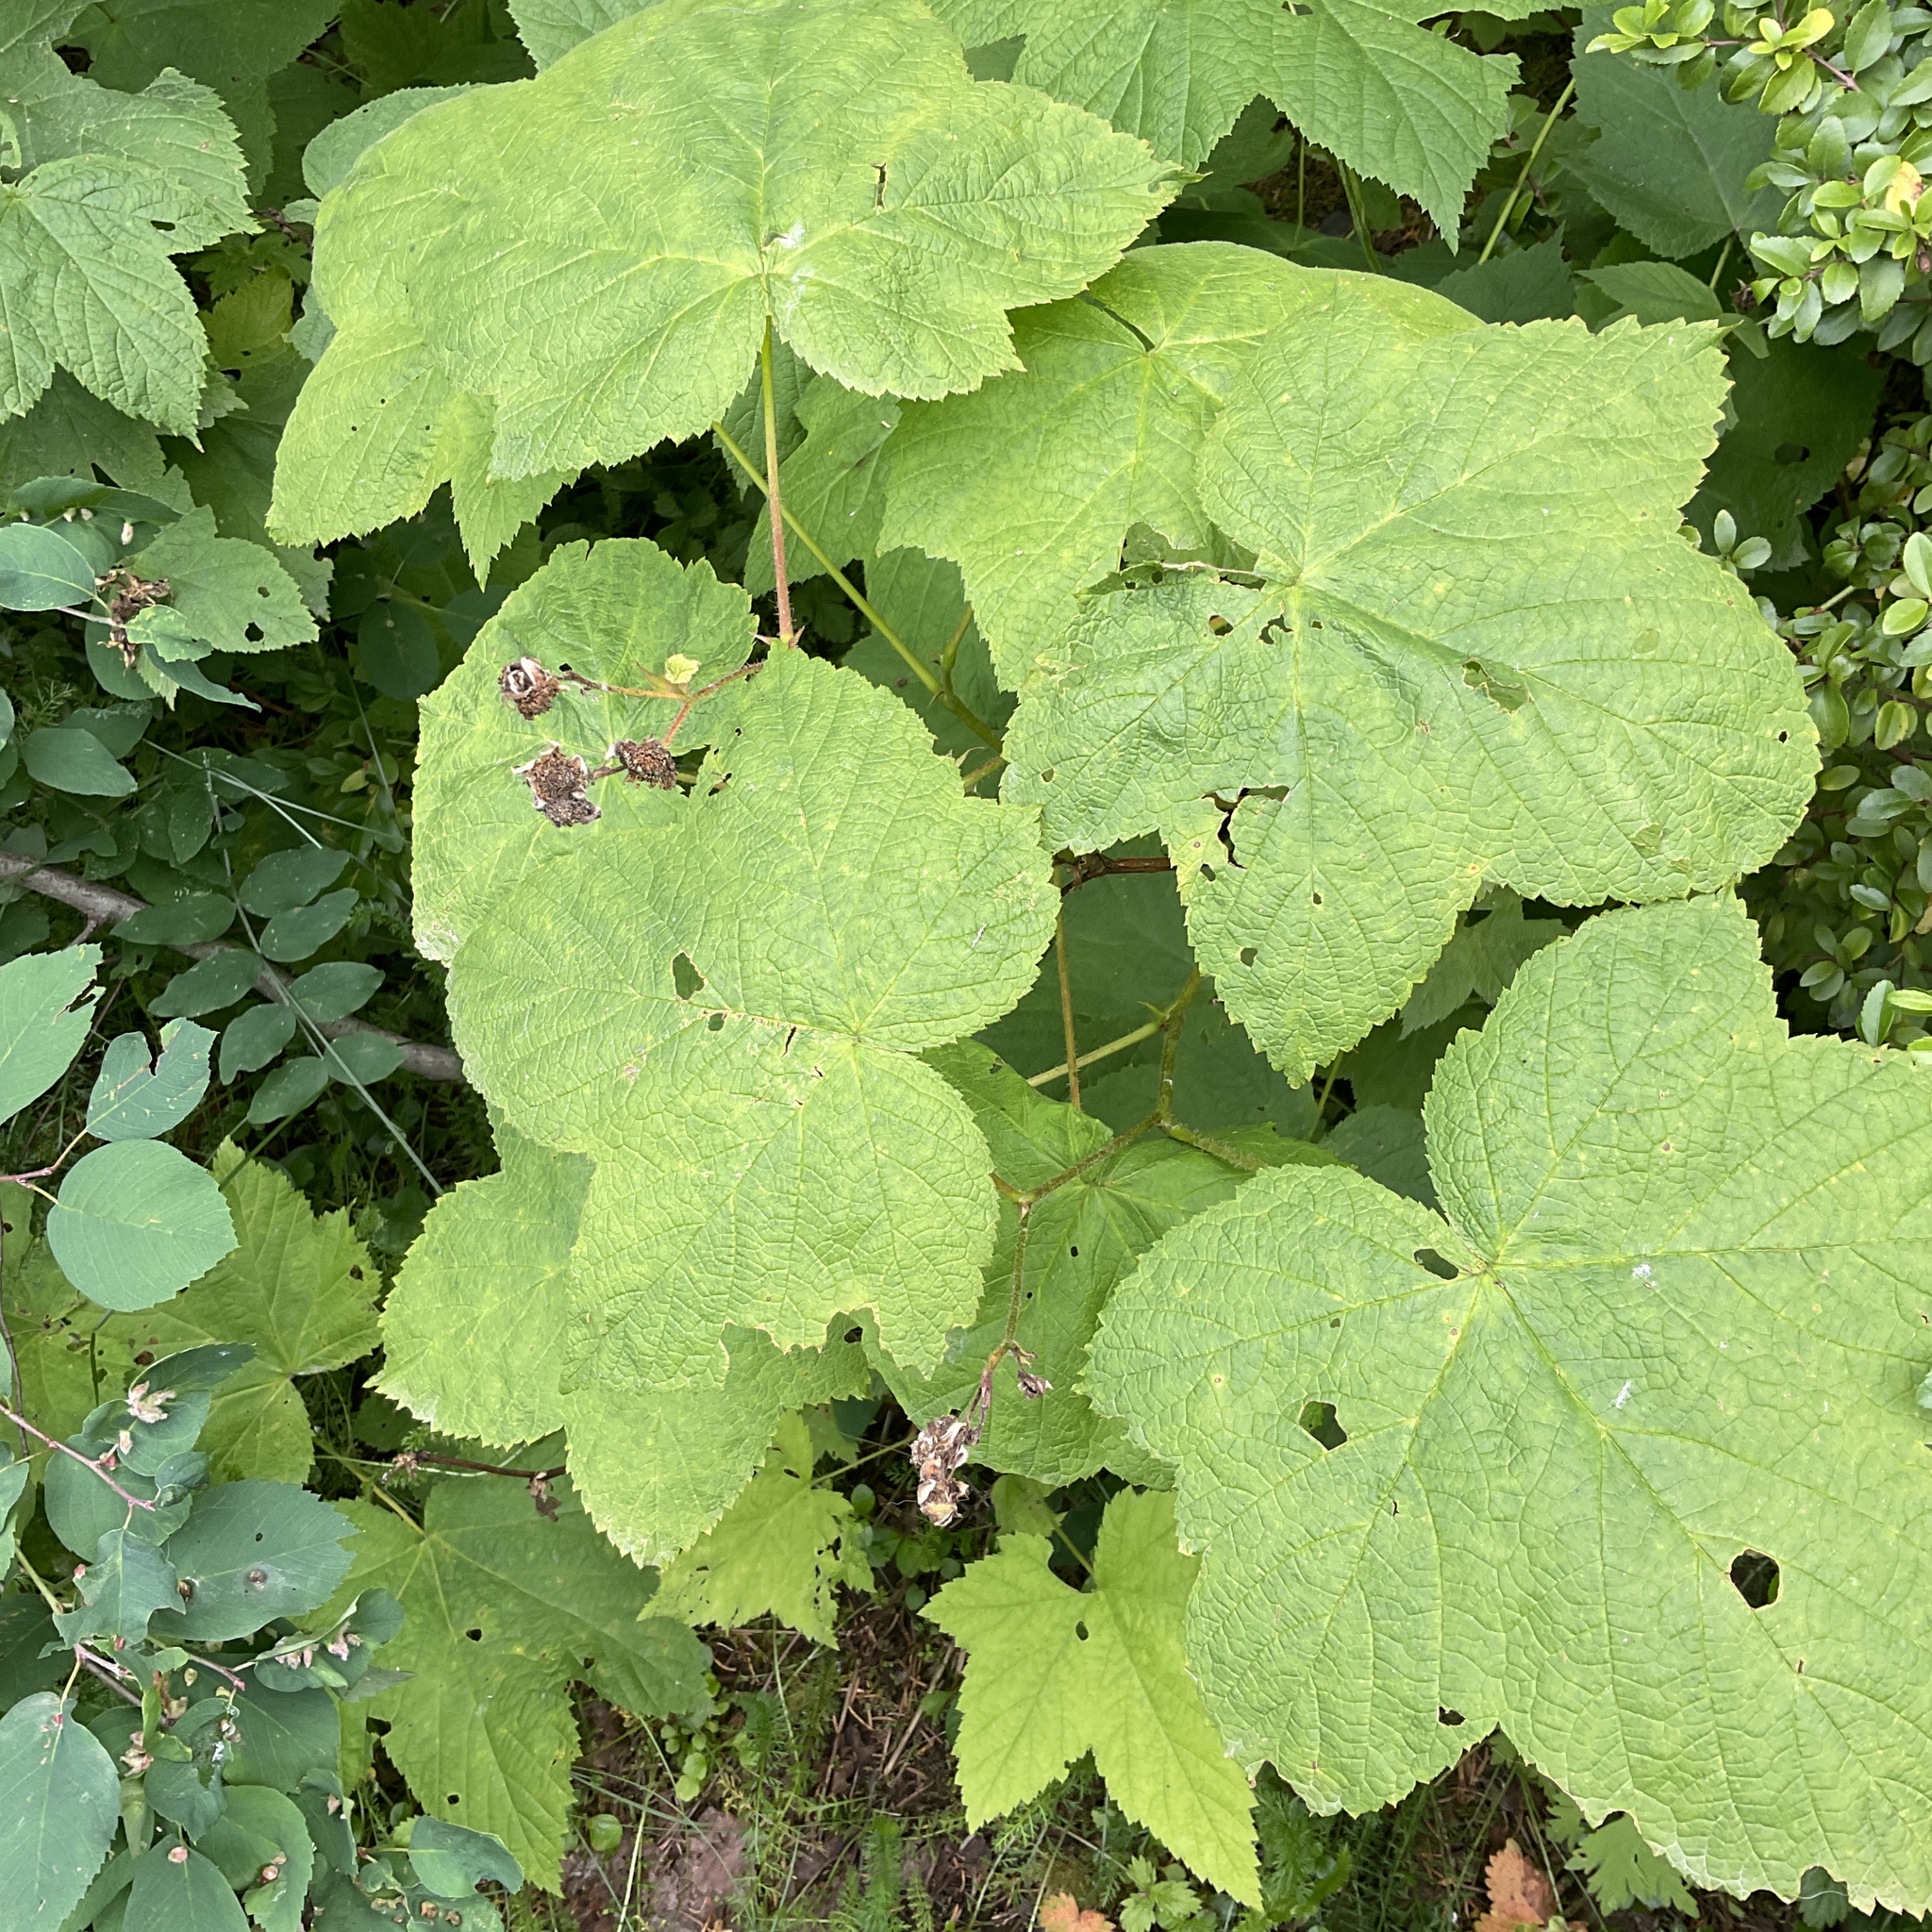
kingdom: Plantae
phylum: Tracheophyta
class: Magnoliopsida
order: Rosales
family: Rosaceae
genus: Rubus
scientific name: Rubus parviflorus
